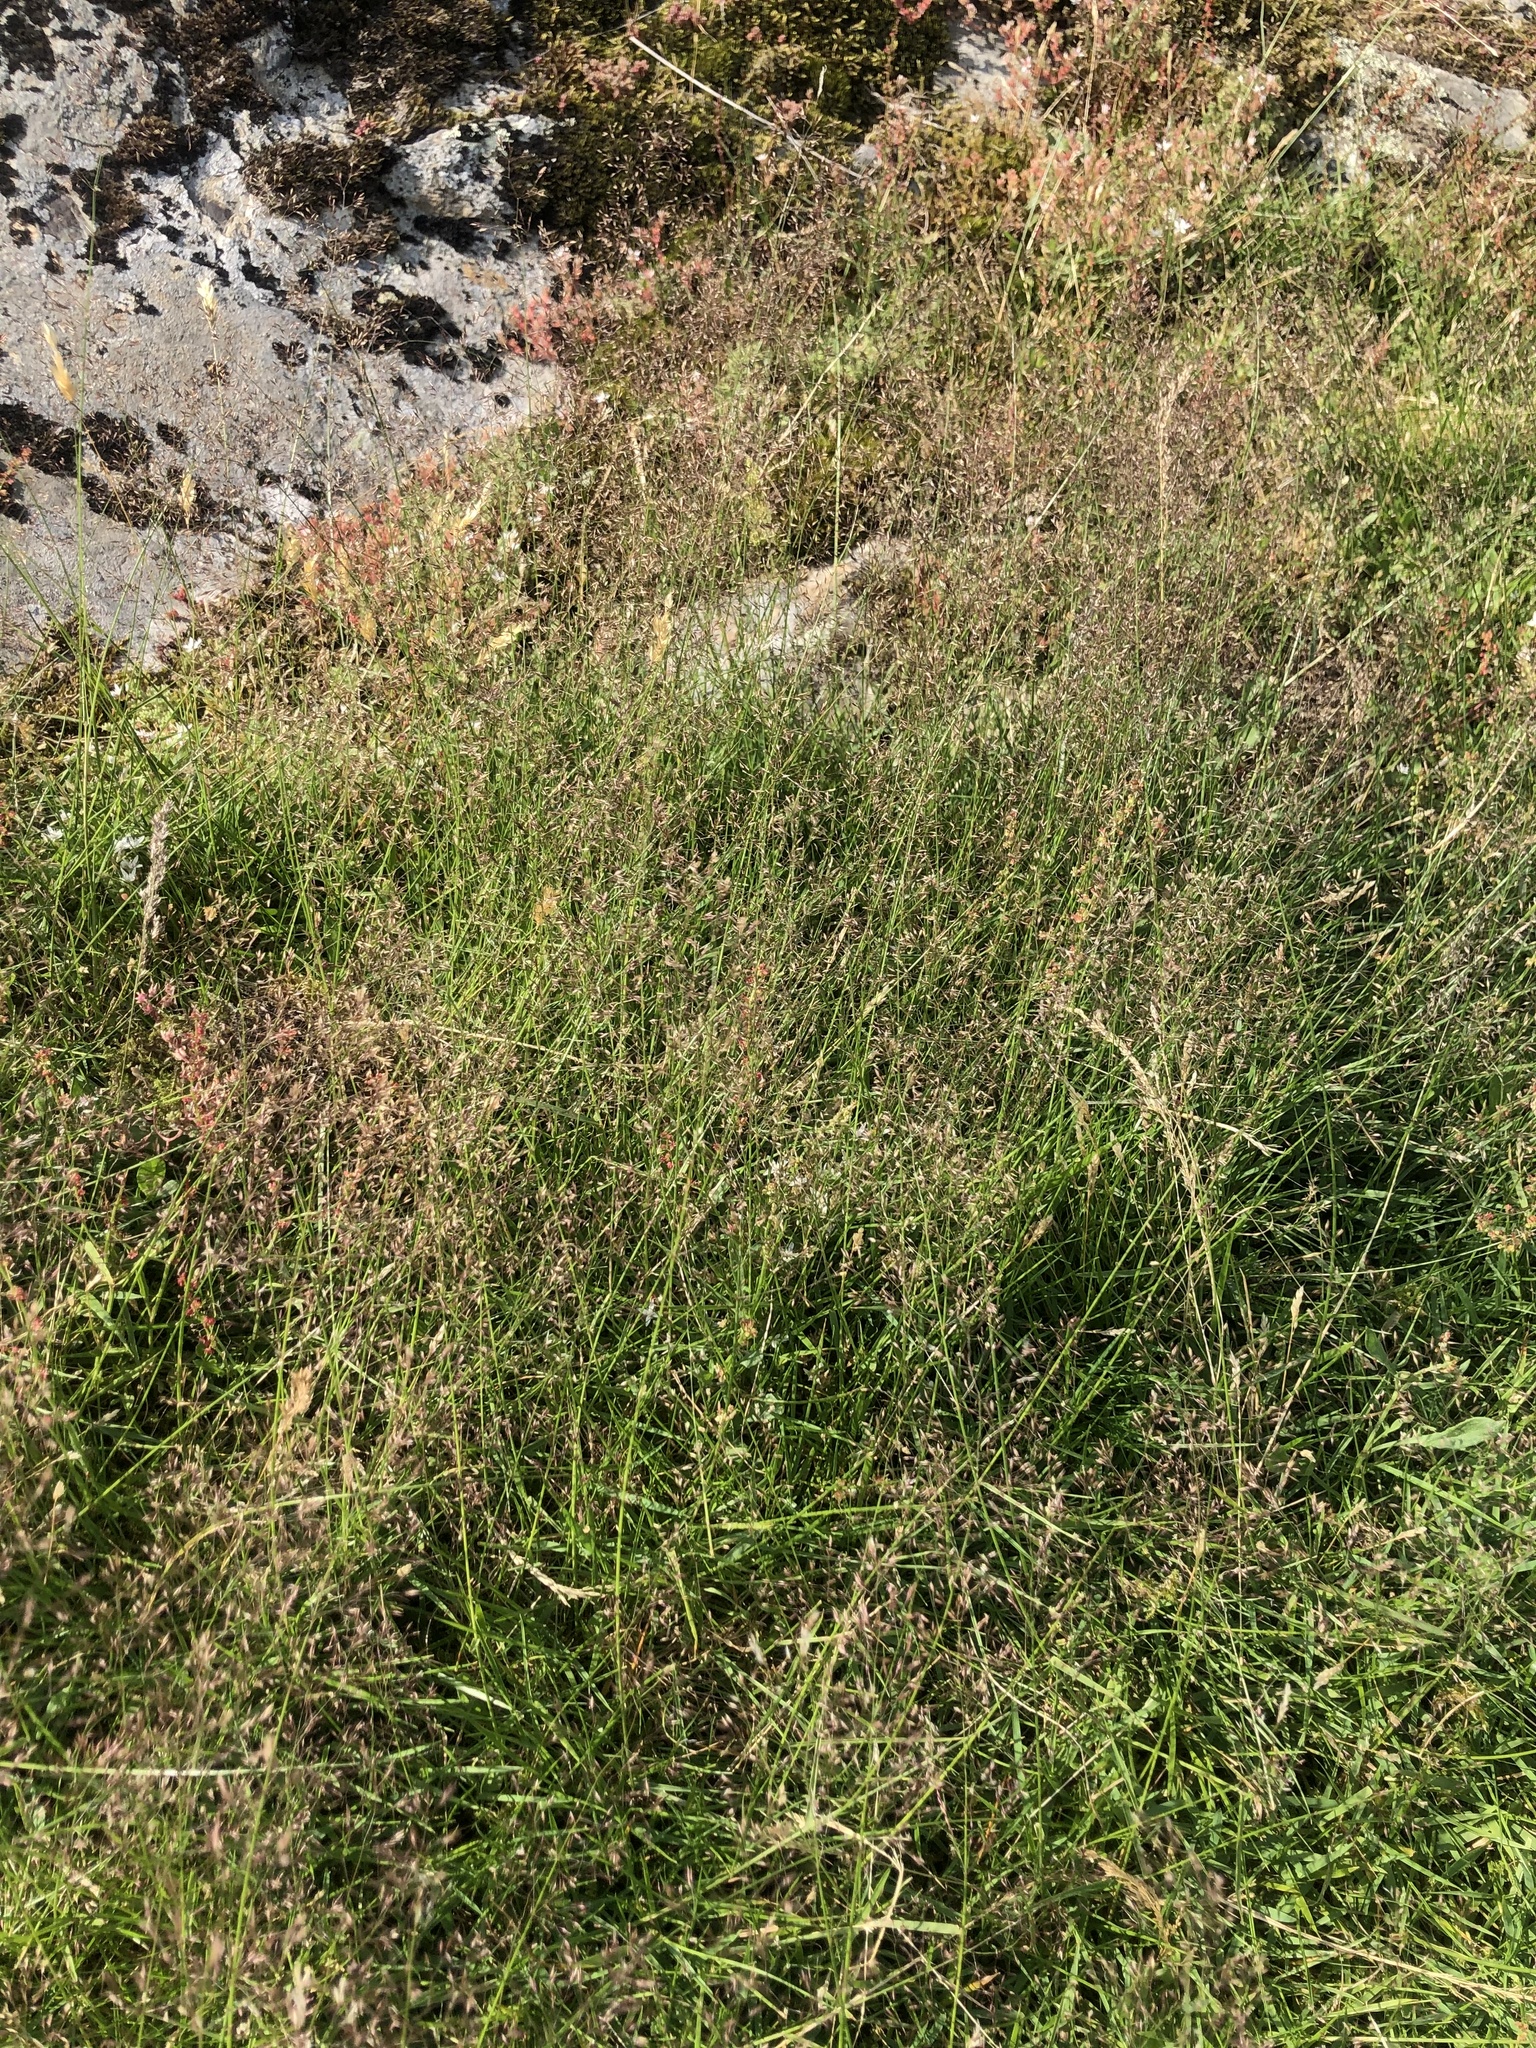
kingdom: Plantae
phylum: Tracheophyta
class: Liliopsida
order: Poales
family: Poaceae
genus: Agrostis
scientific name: Agrostis capillaris
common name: Colonial bentgrass
